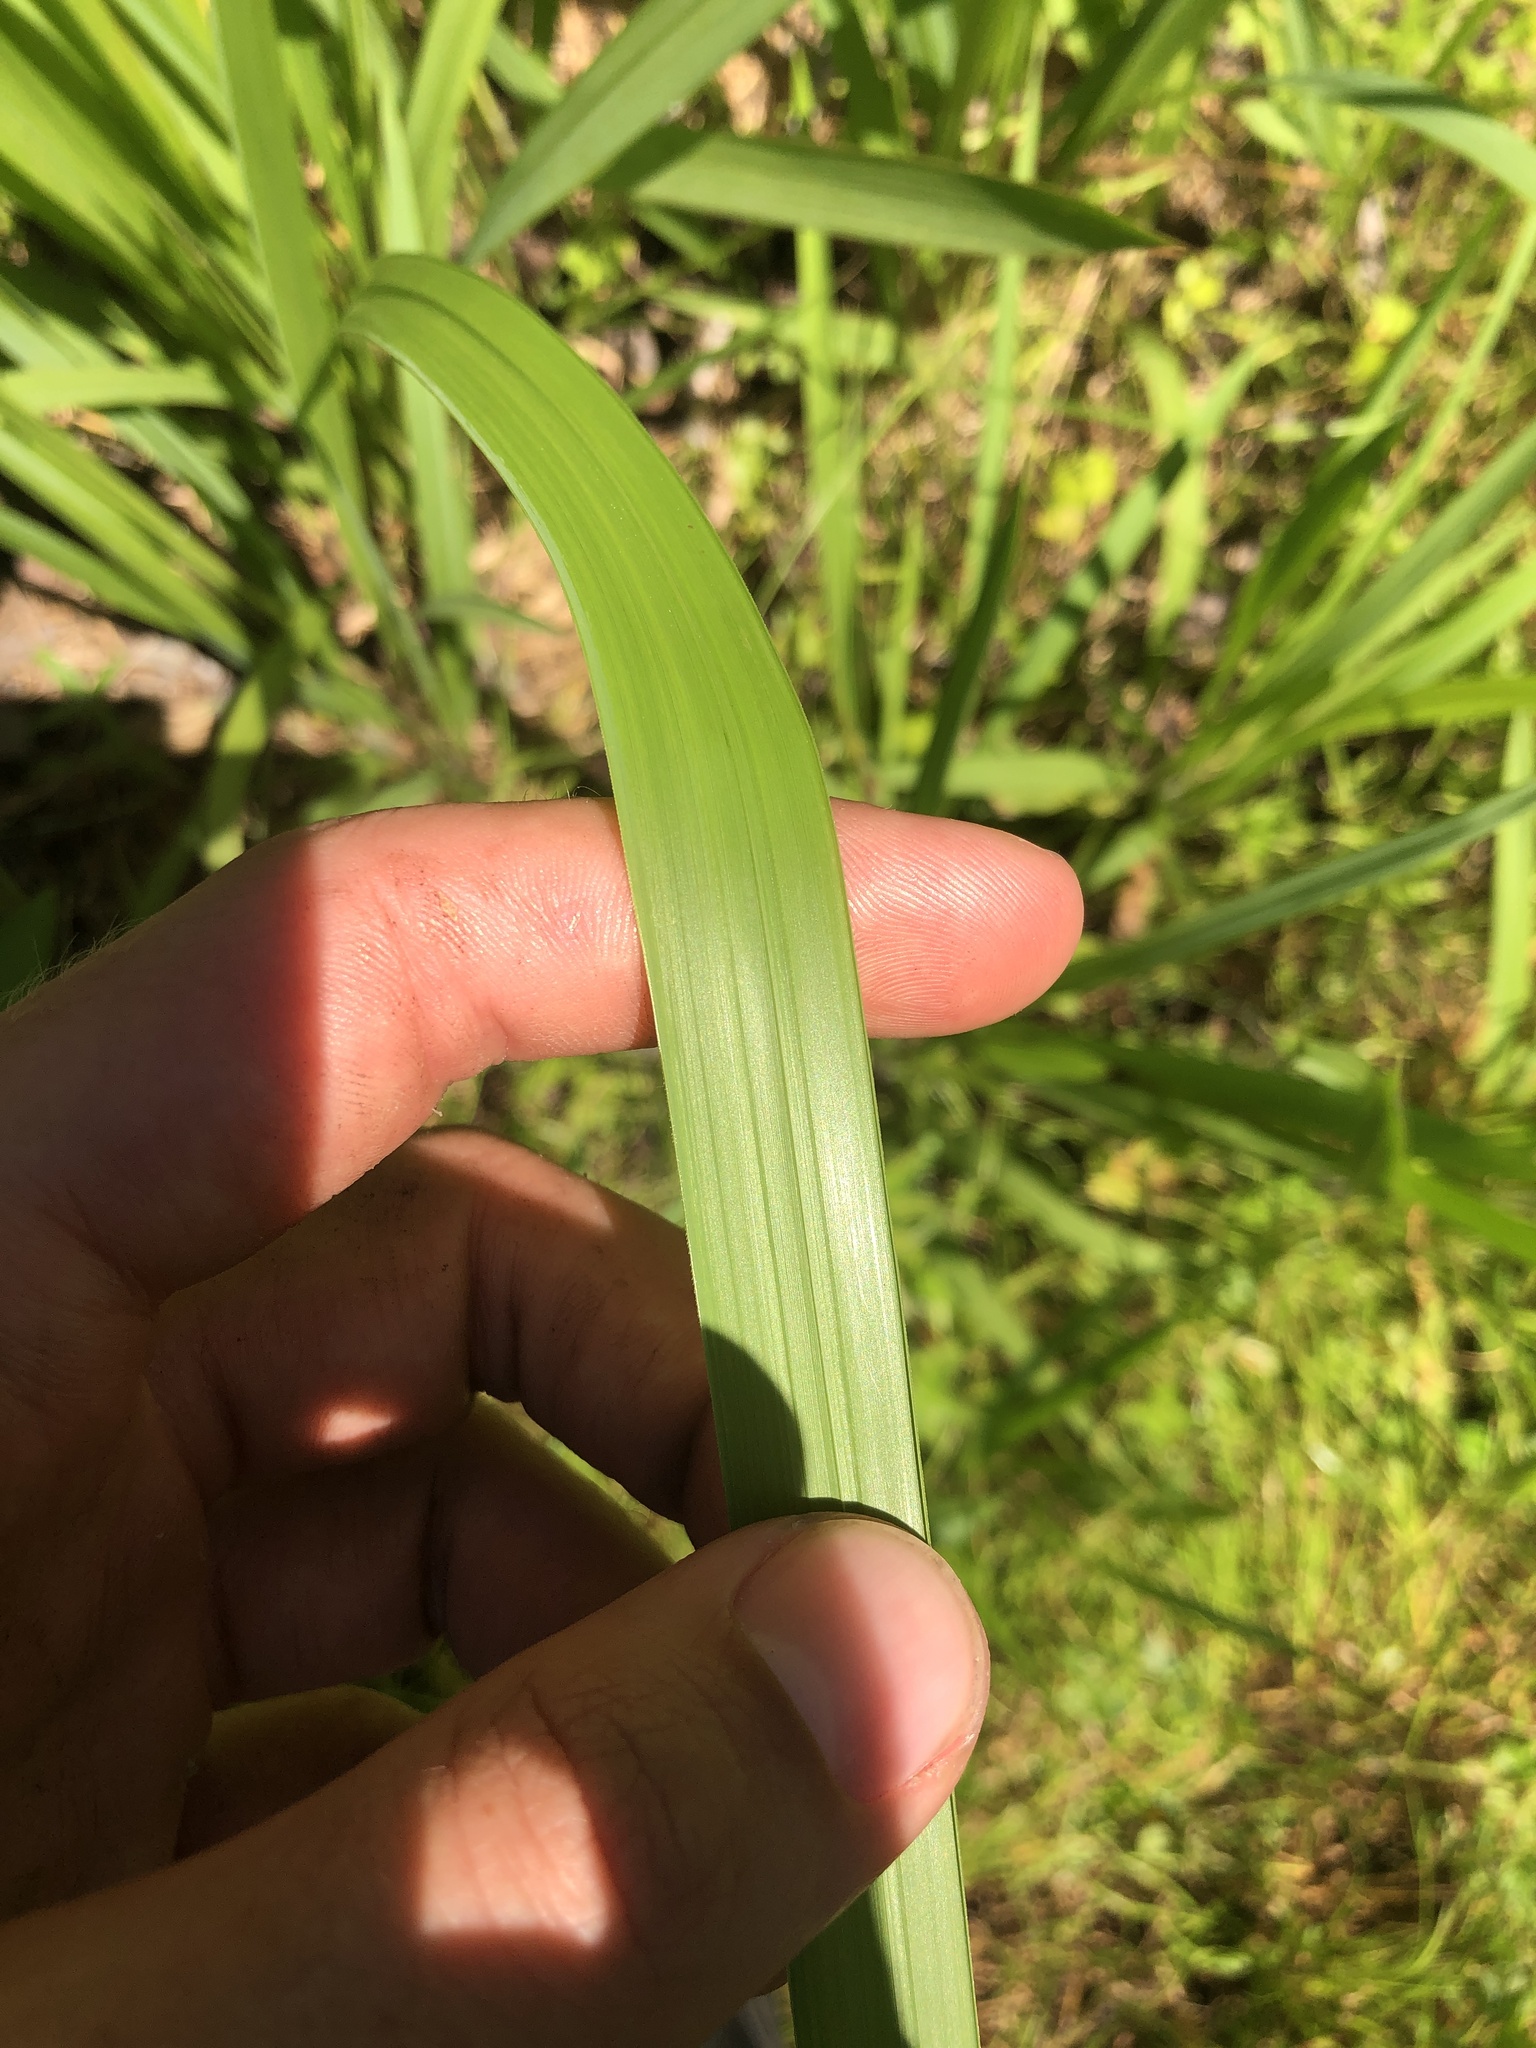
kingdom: Plantae
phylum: Tracheophyta
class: Liliopsida
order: Poales
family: Poaceae
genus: Imperata
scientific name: Imperata cylindrica
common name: Cogongrass
